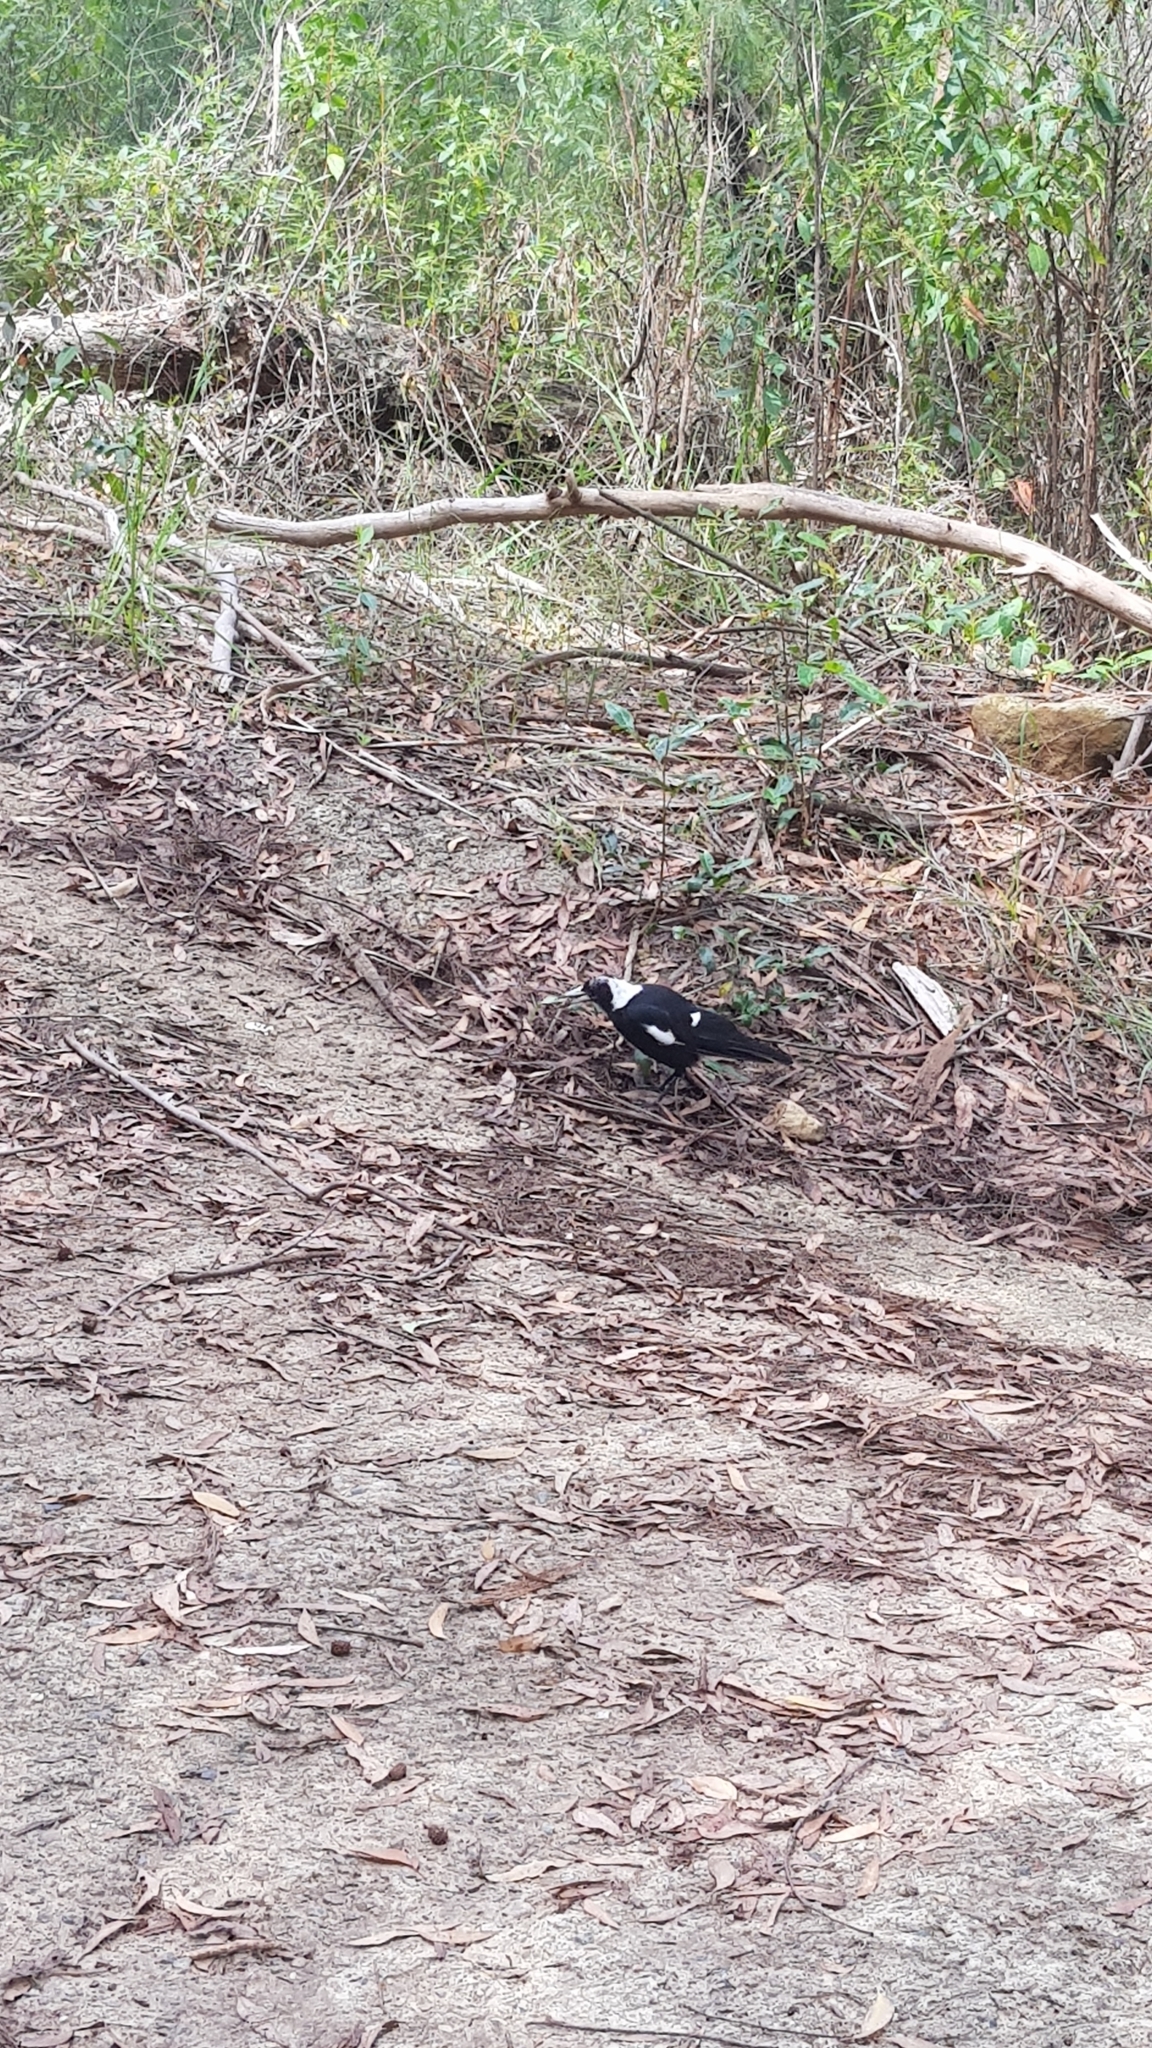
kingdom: Animalia
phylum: Chordata
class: Aves
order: Passeriformes
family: Cracticidae
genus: Gymnorhina
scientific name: Gymnorhina tibicen
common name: Australian magpie
